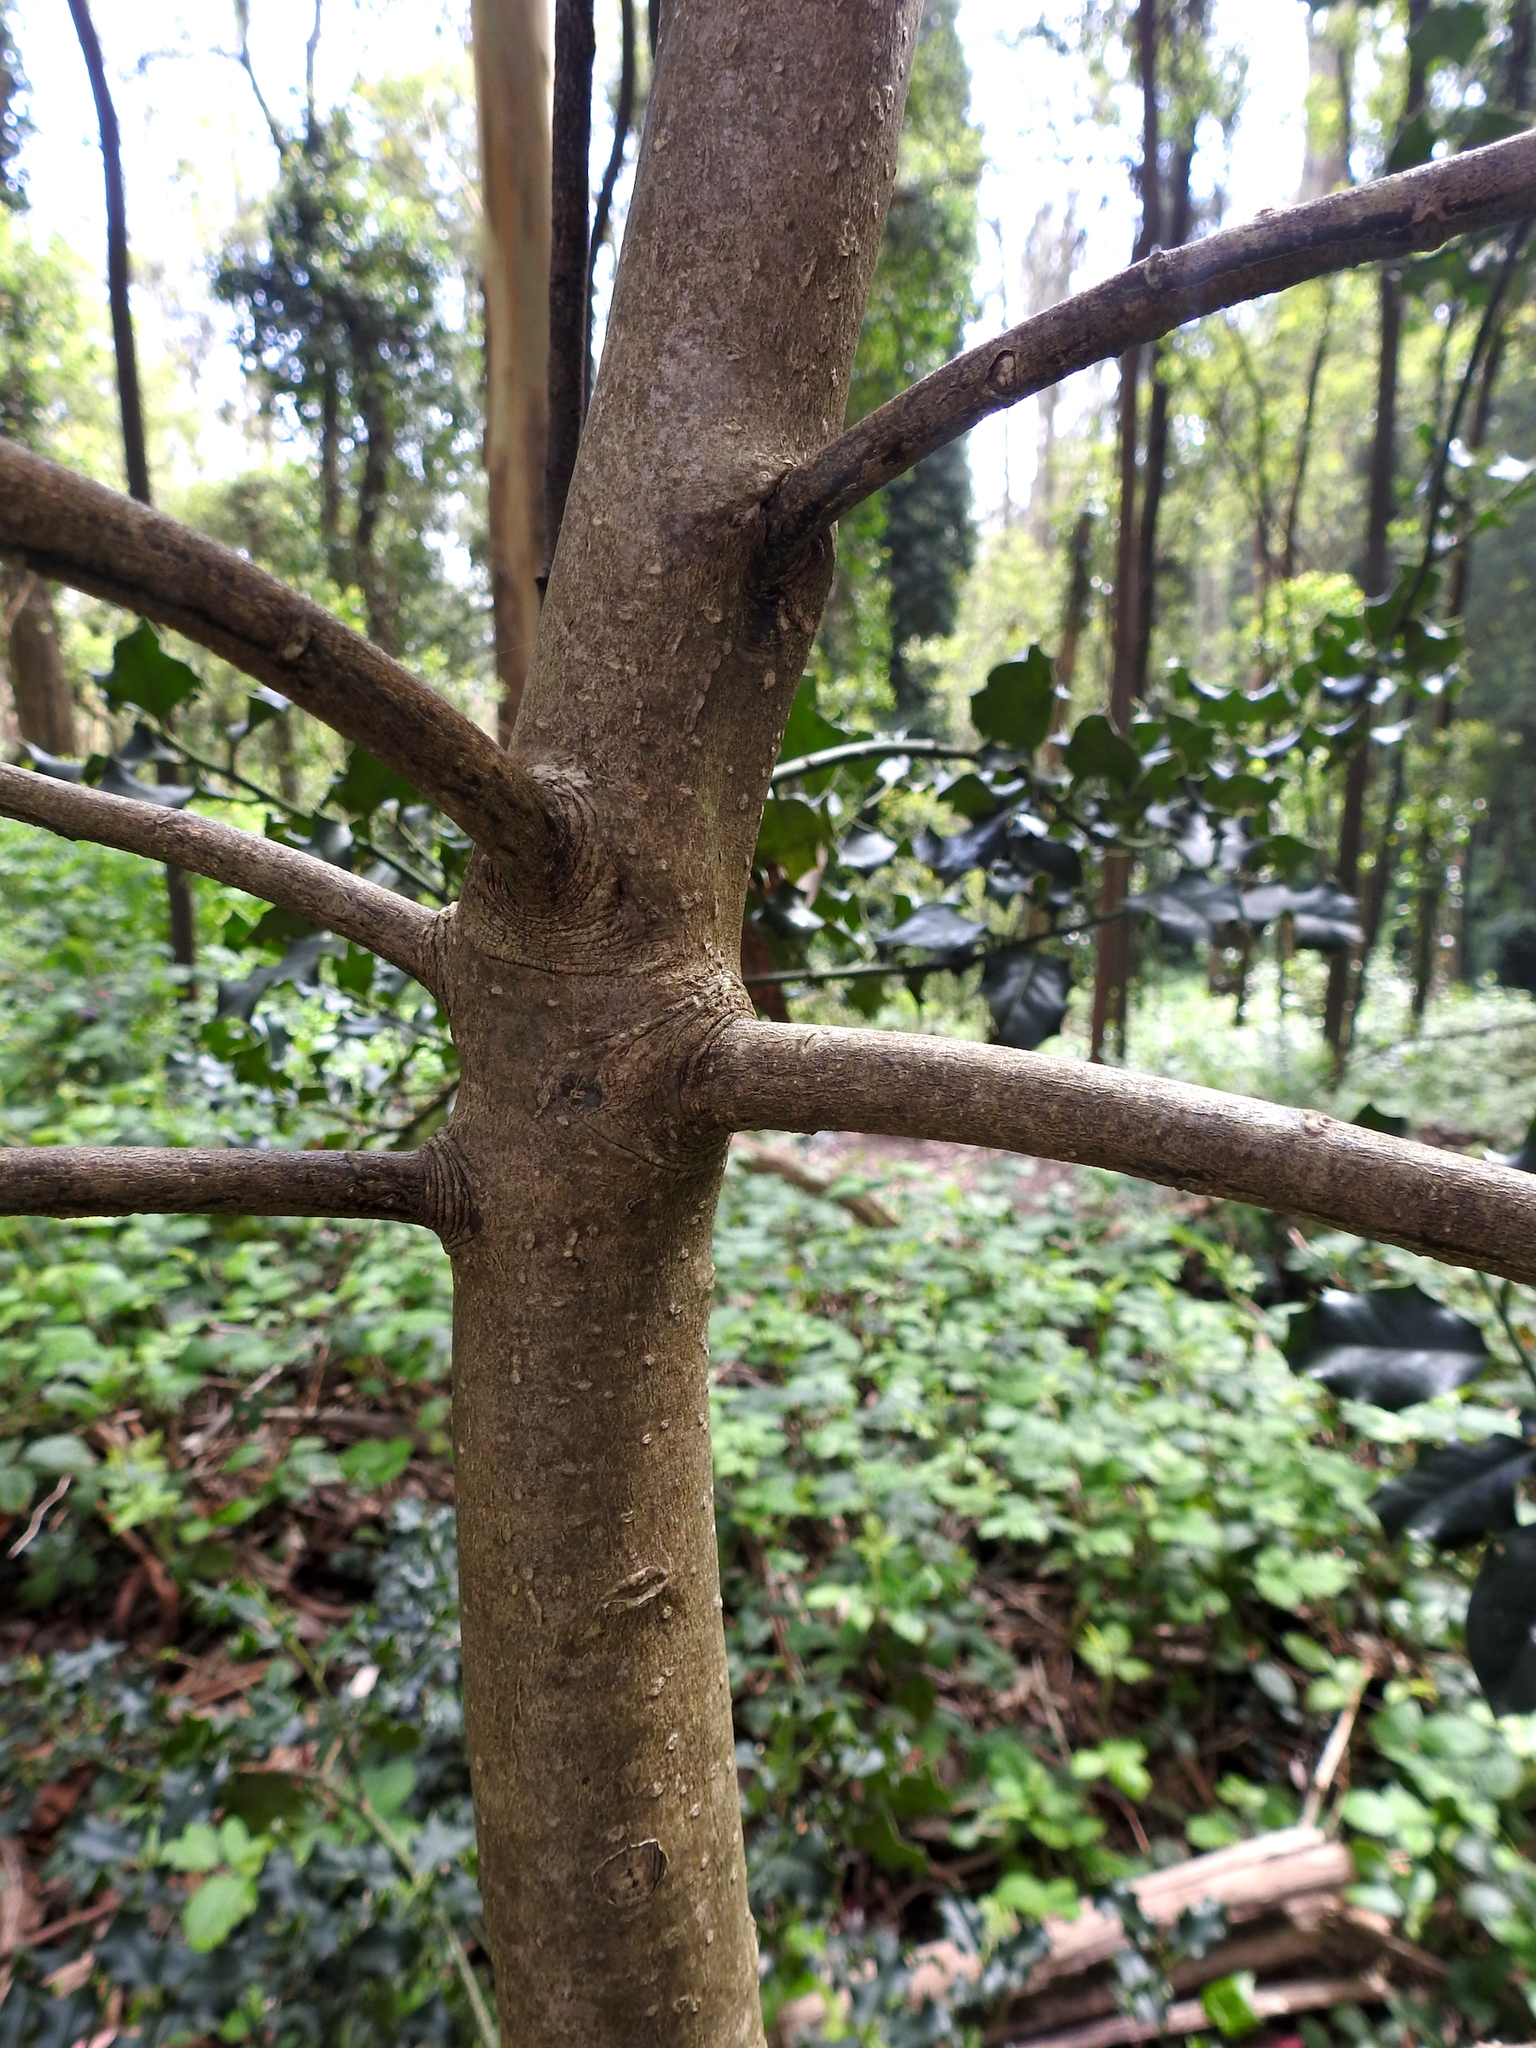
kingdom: Plantae
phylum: Tracheophyta
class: Magnoliopsida
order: Aquifoliales
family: Aquifoliaceae
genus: Ilex
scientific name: Ilex aquifolium
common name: English holly
